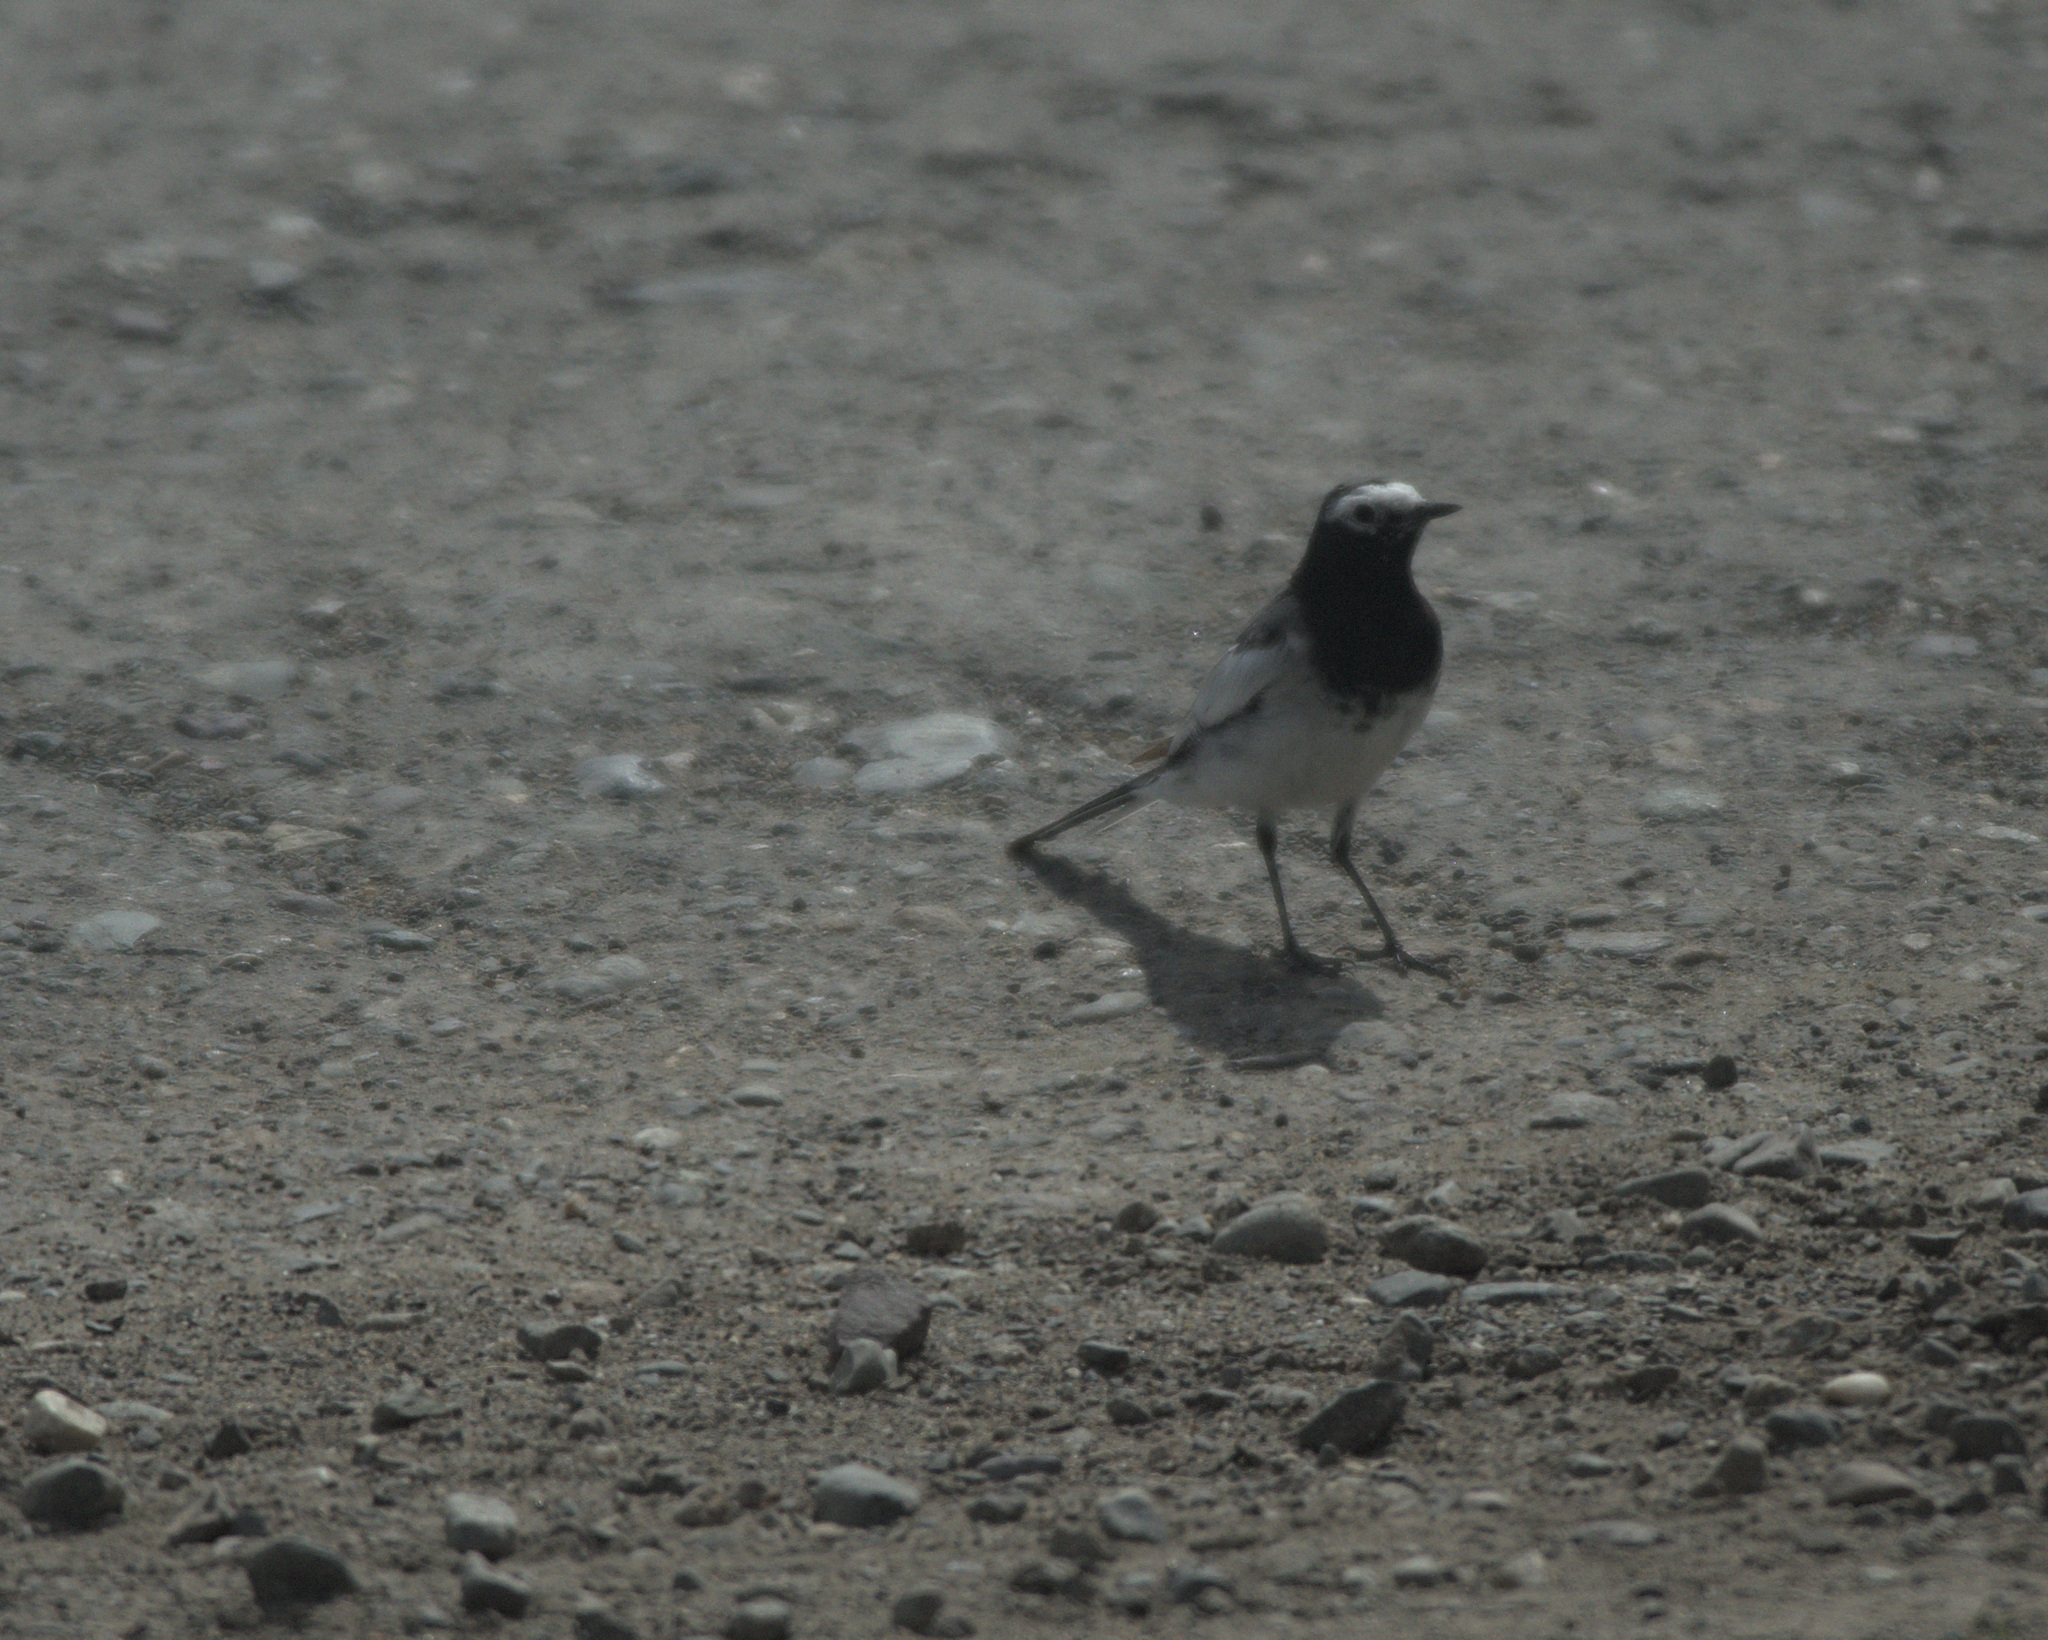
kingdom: Animalia
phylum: Chordata
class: Aves
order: Passeriformes
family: Motacillidae
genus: Motacilla
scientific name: Motacilla alba
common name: White wagtail
